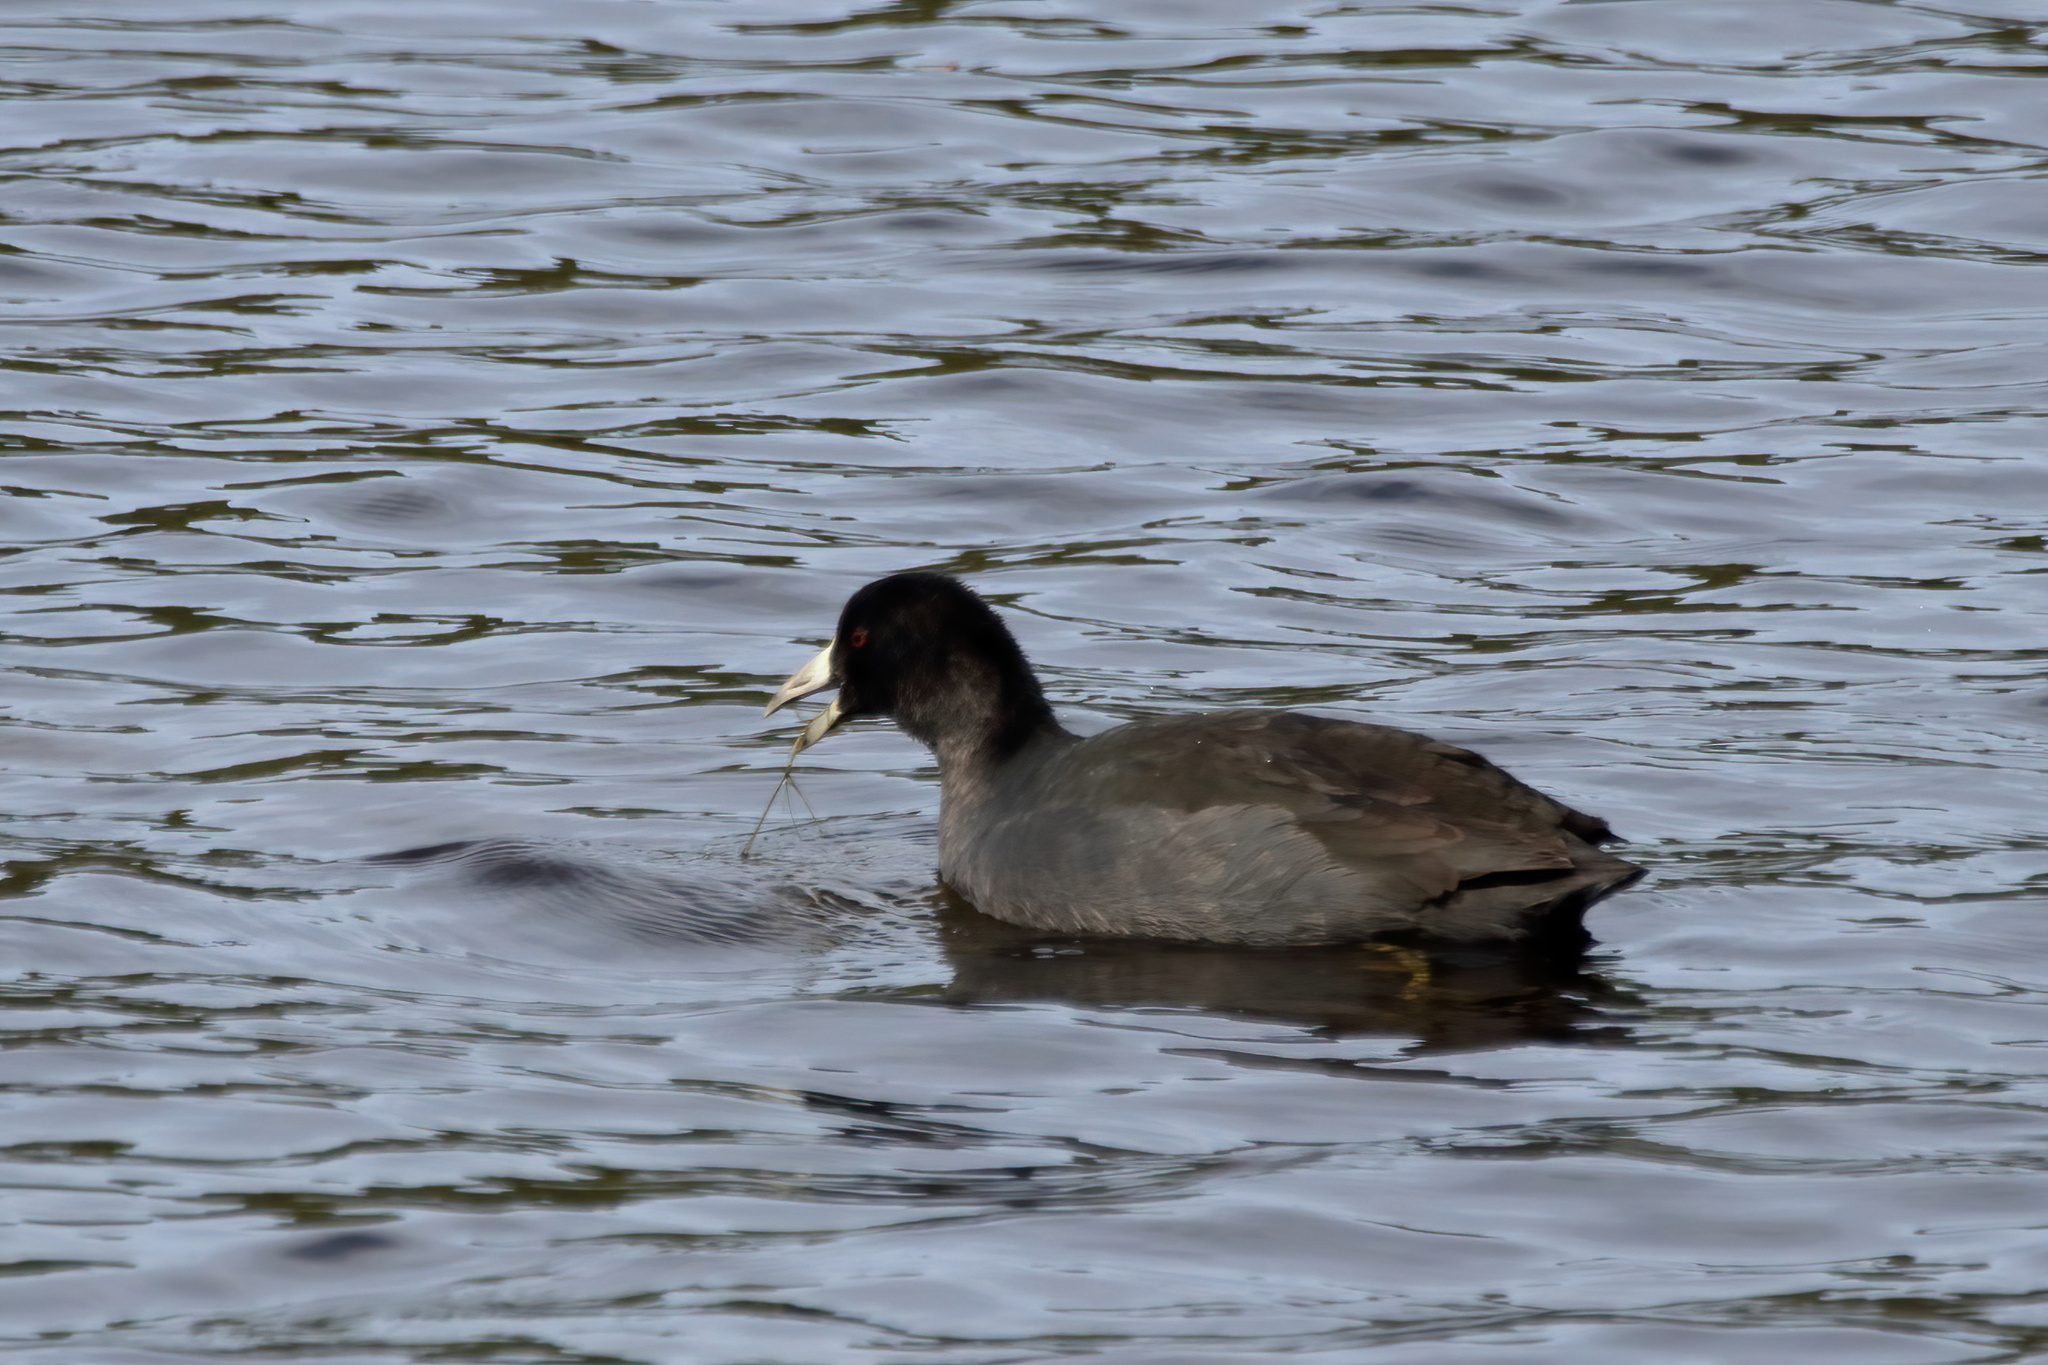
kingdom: Animalia
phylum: Chordata
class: Aves
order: Gruiformes
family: Rallidae
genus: Fulica
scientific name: Fulica americana
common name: American coot
